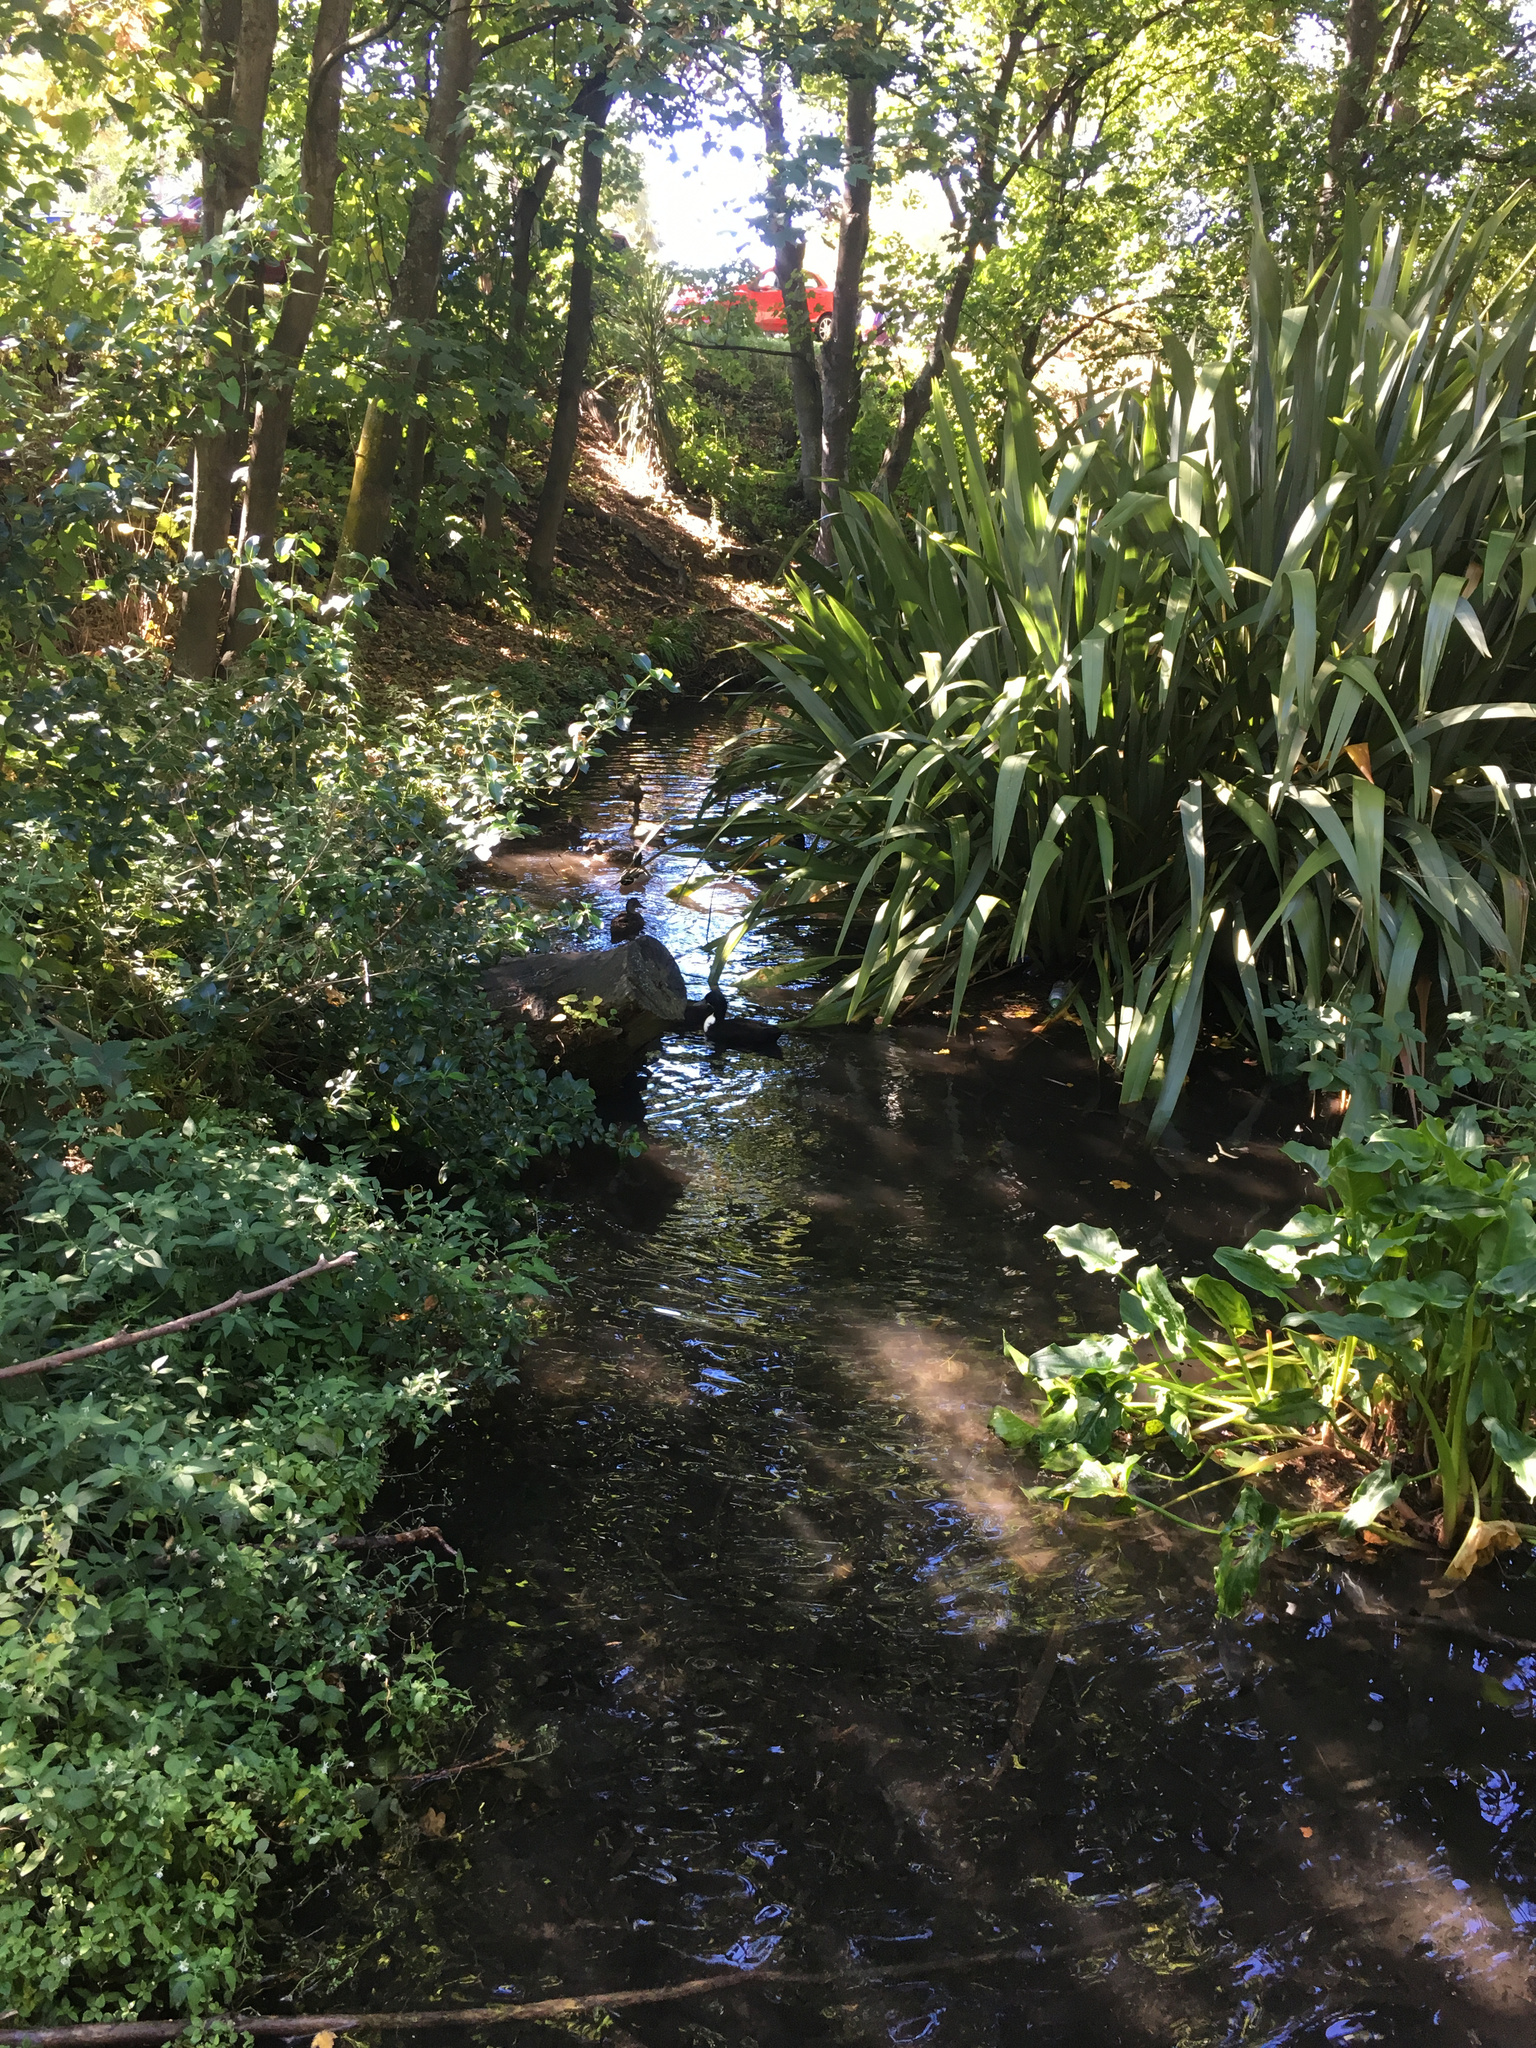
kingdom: Animalia
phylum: Chordata
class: Aves
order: Anseriformes
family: Anatidae
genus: Anas
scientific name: Anas platyrhynchos
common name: Mallard
